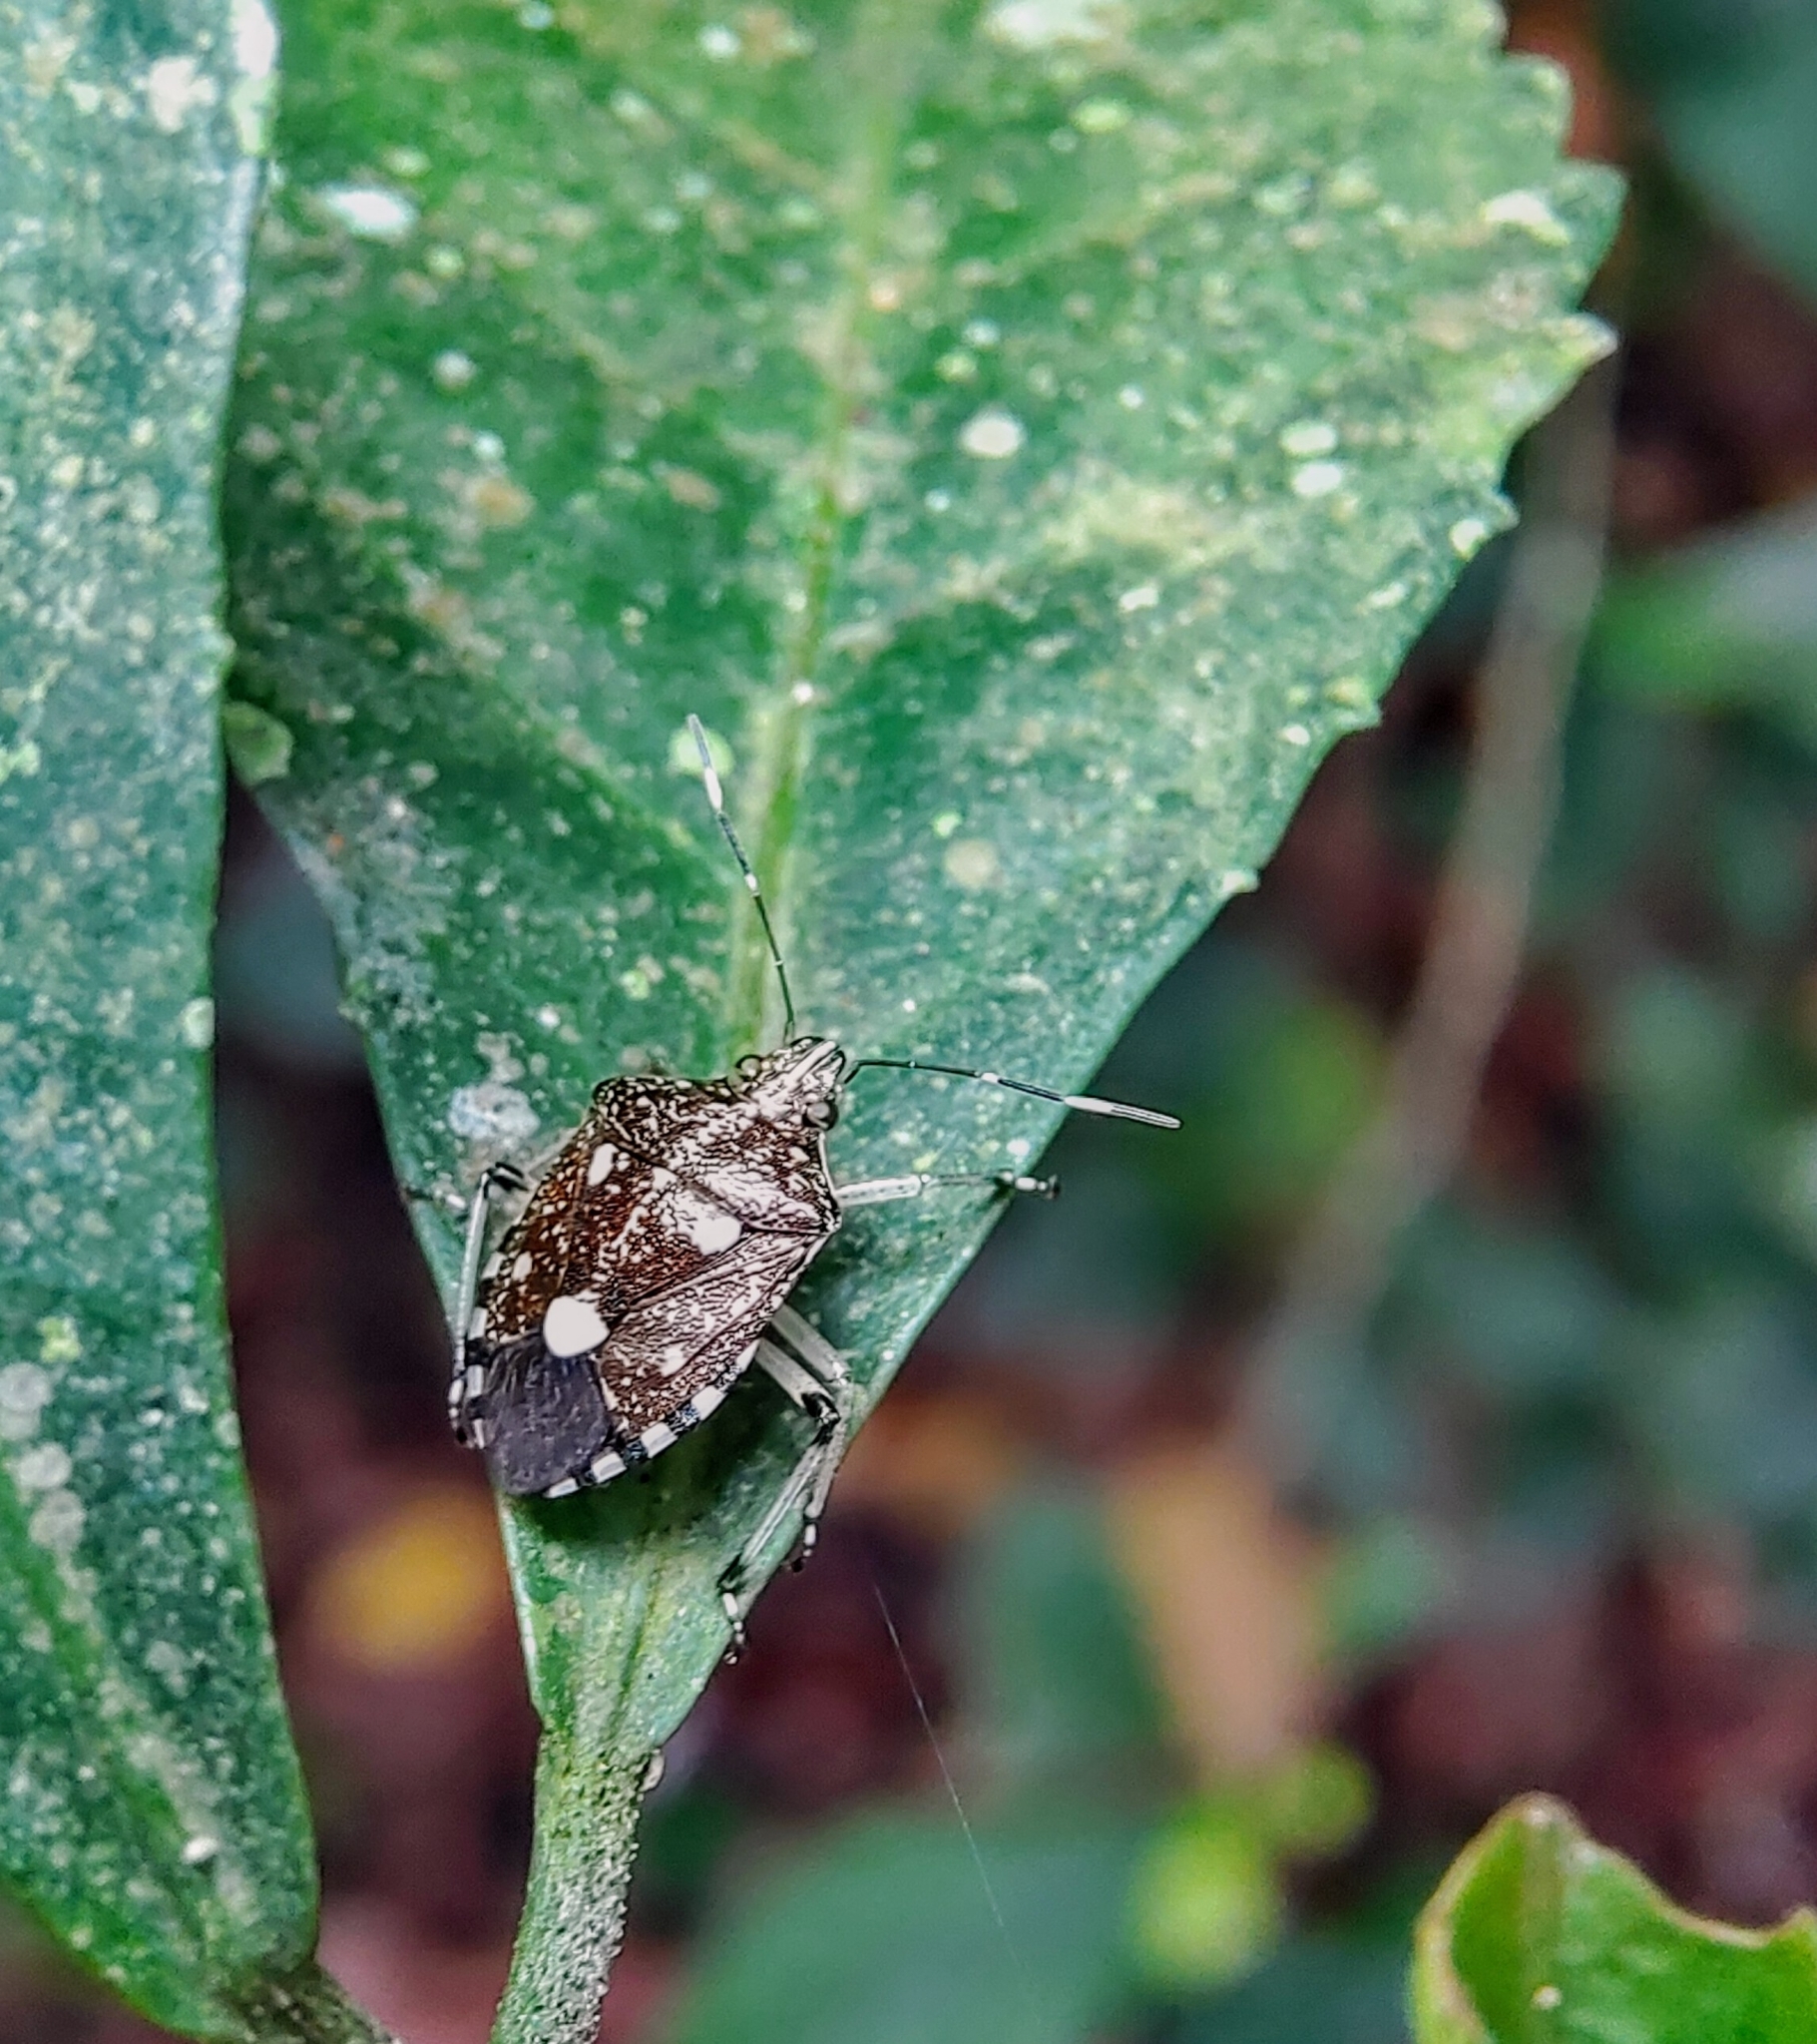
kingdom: Animalia
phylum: Arthropoda
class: Insecta
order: Hemiptera
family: Pentatomidae
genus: Tolumnia
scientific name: Tolumnia latipes
